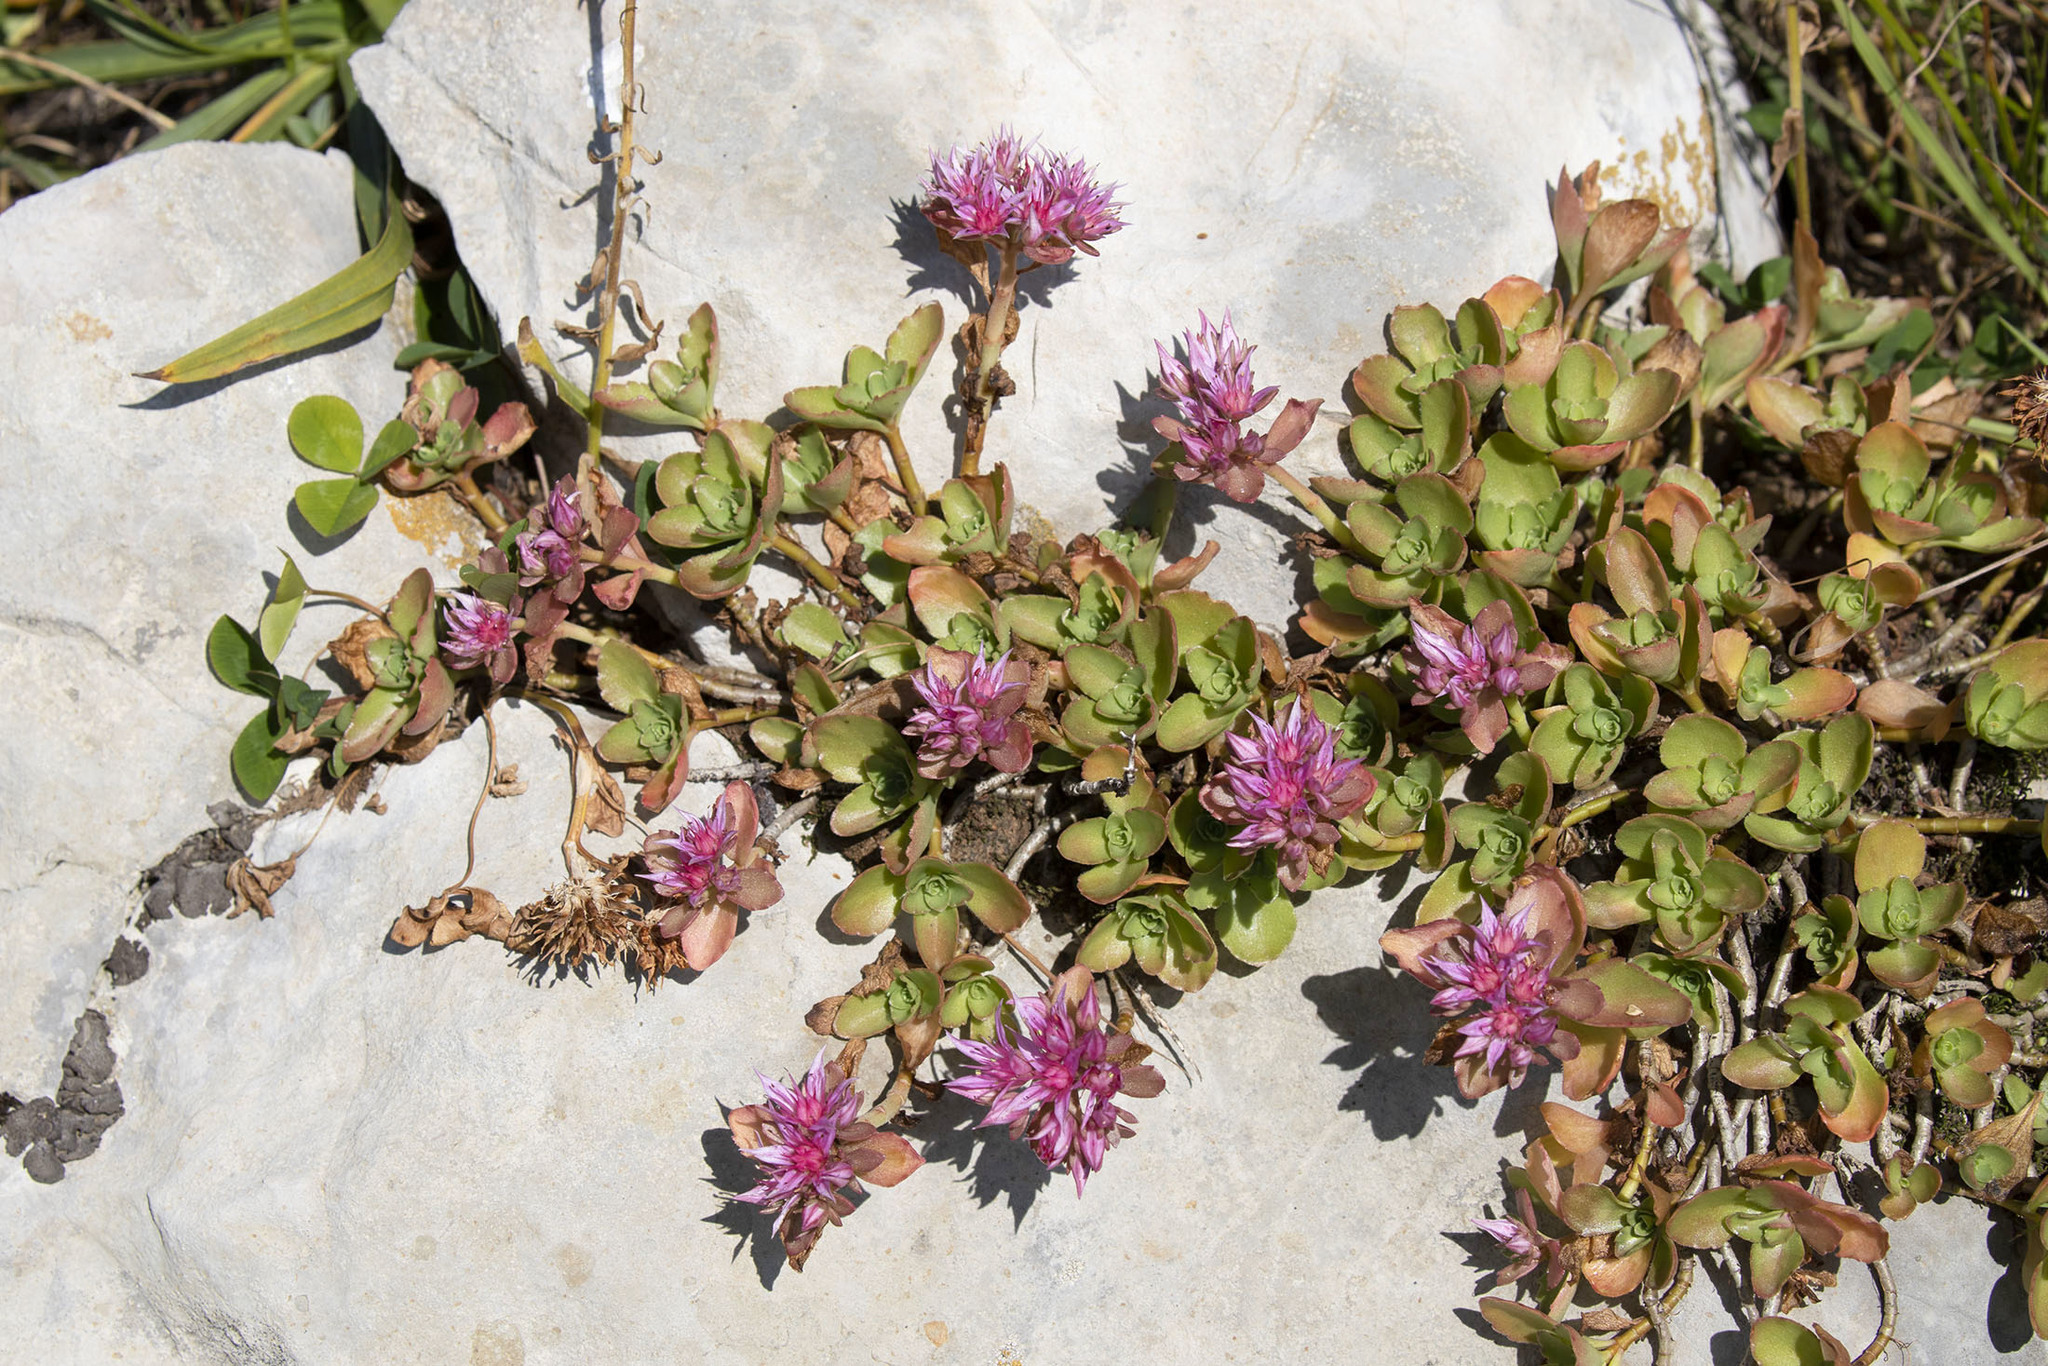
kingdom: Plantae
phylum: Tracheophyta
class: Magnoliopsida
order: Saxifragales
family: Crassulaceae
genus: Phedimus
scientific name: Phedimus spurius
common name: Caucasian stonecrop
